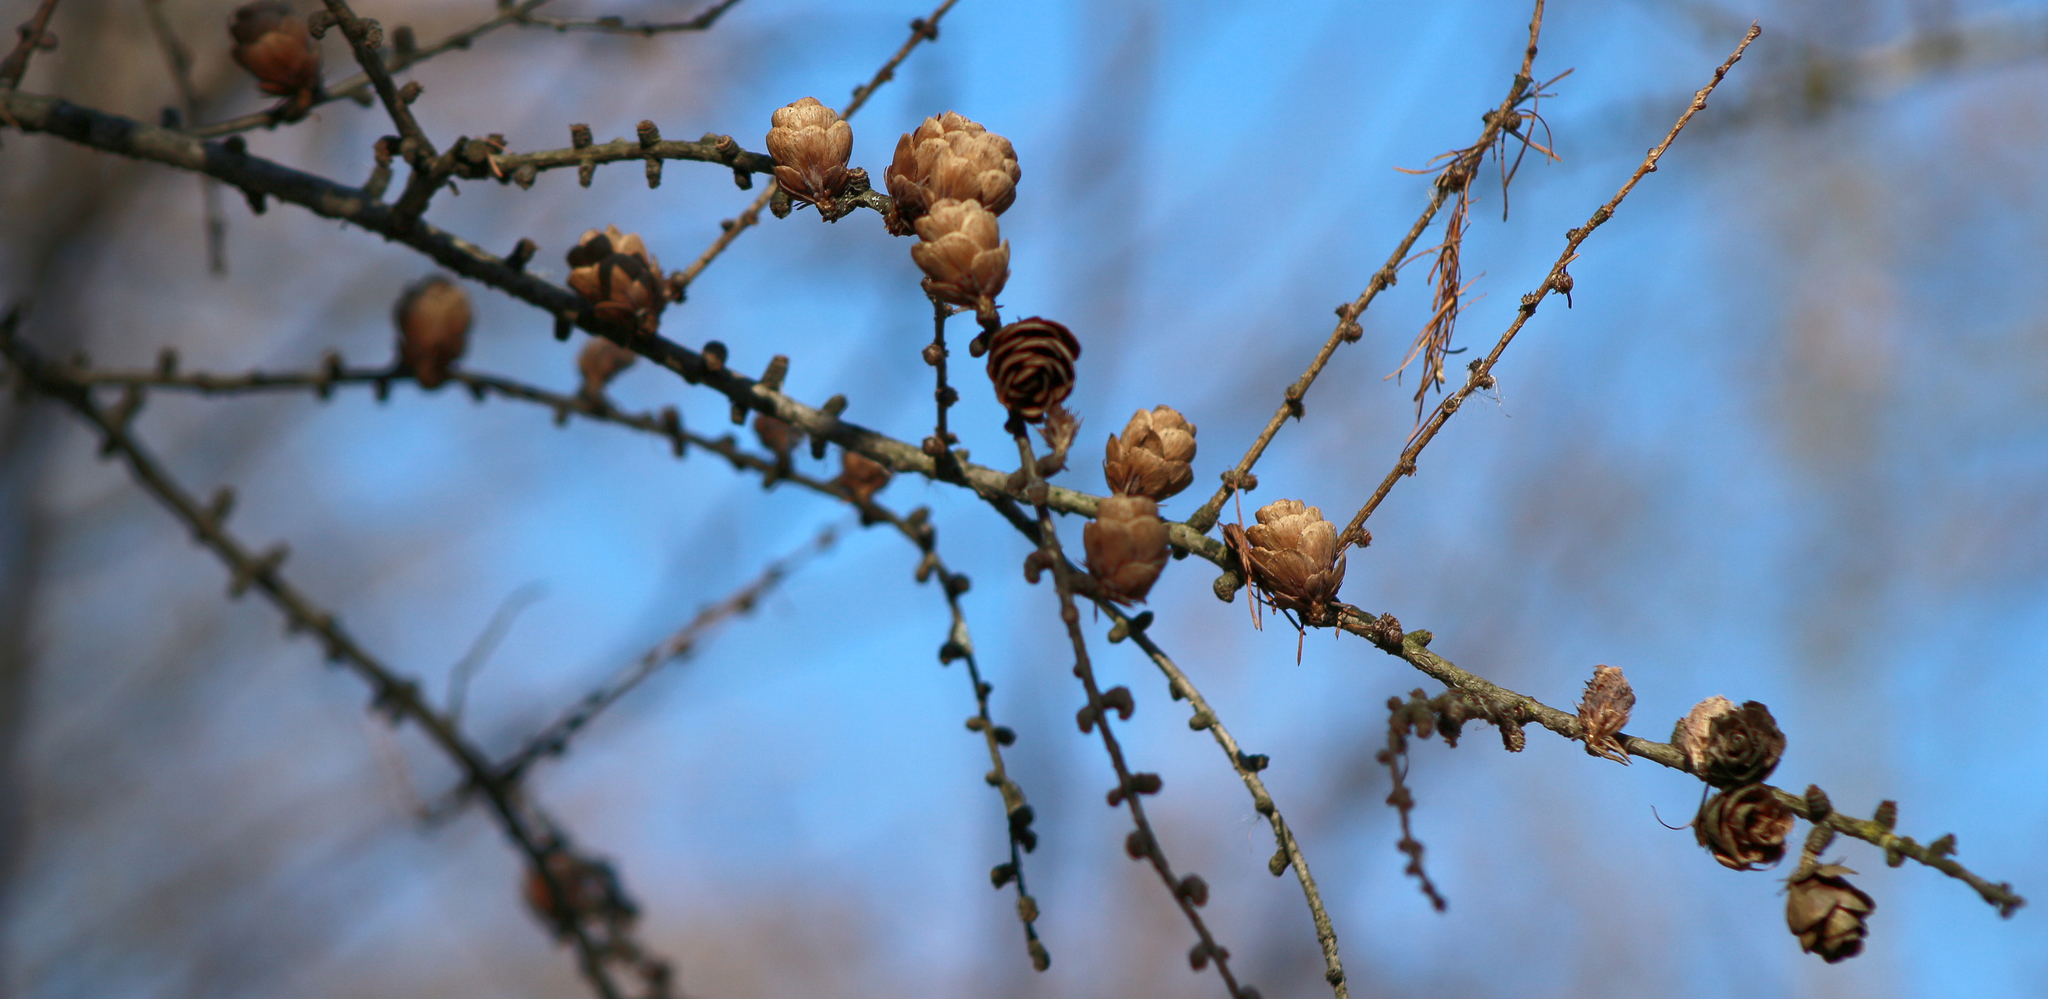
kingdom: Plantae
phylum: Tracheophyta
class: Pinopsida
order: Pinales
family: Pinaceae
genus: Larix
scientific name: Larix laricina
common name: American larch
